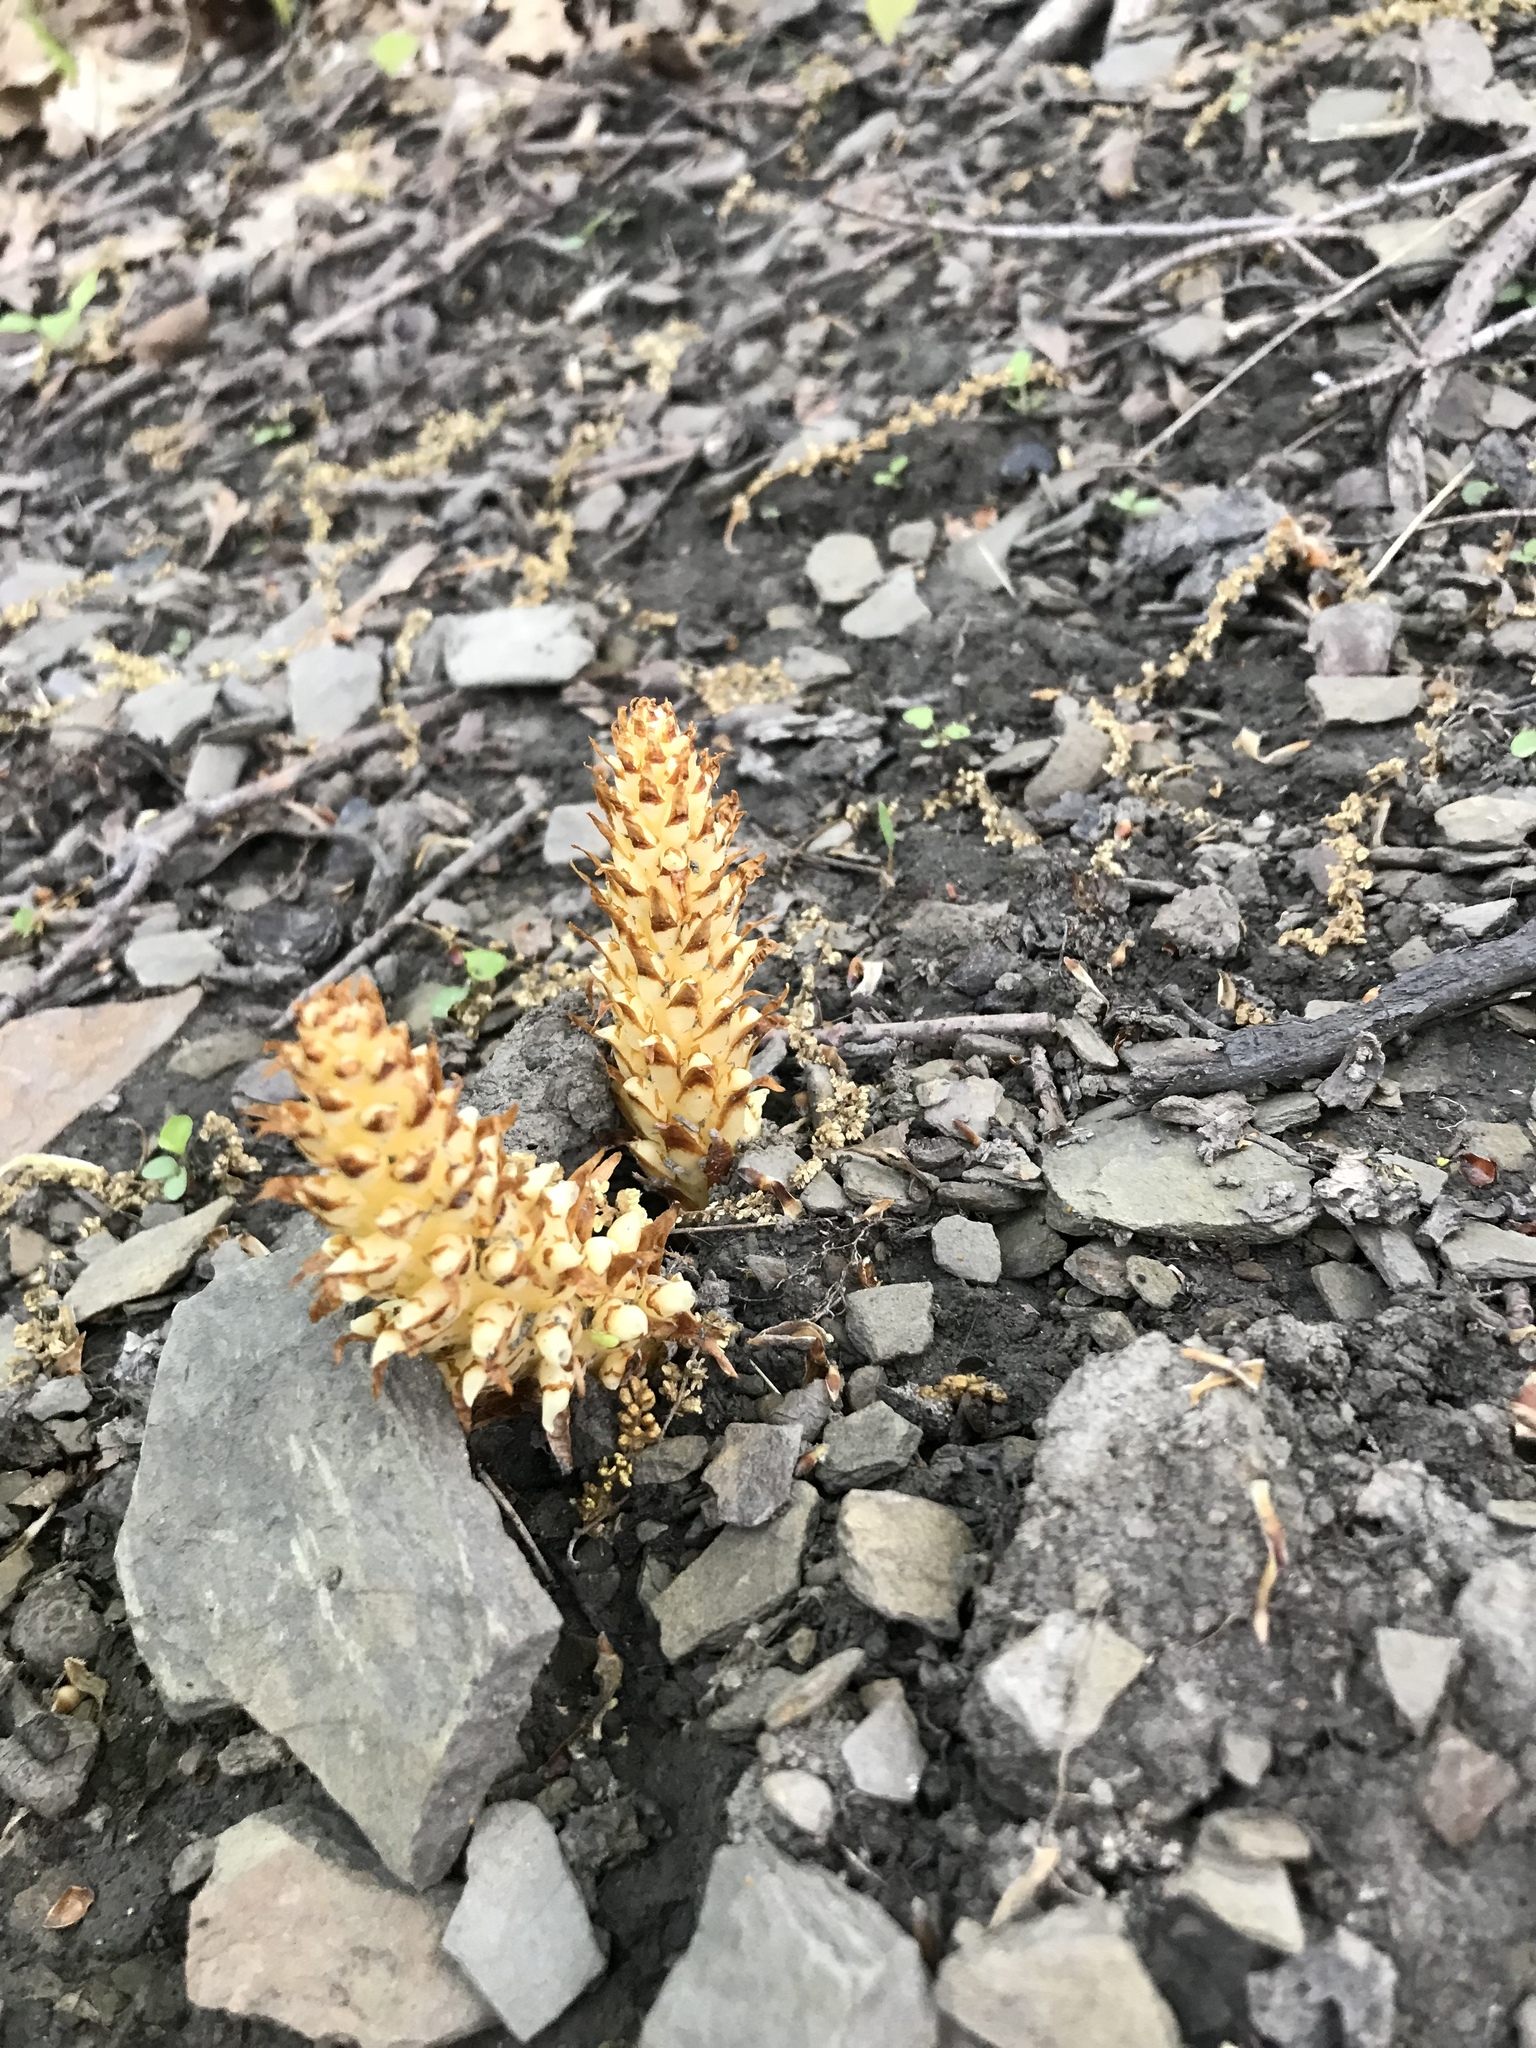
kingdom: Plantae
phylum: Tracheophyta
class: Magnoliopsida
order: Lamiales
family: Orobanchaceae
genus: Conopholis
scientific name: Conopholis americana
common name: American cancer-root
